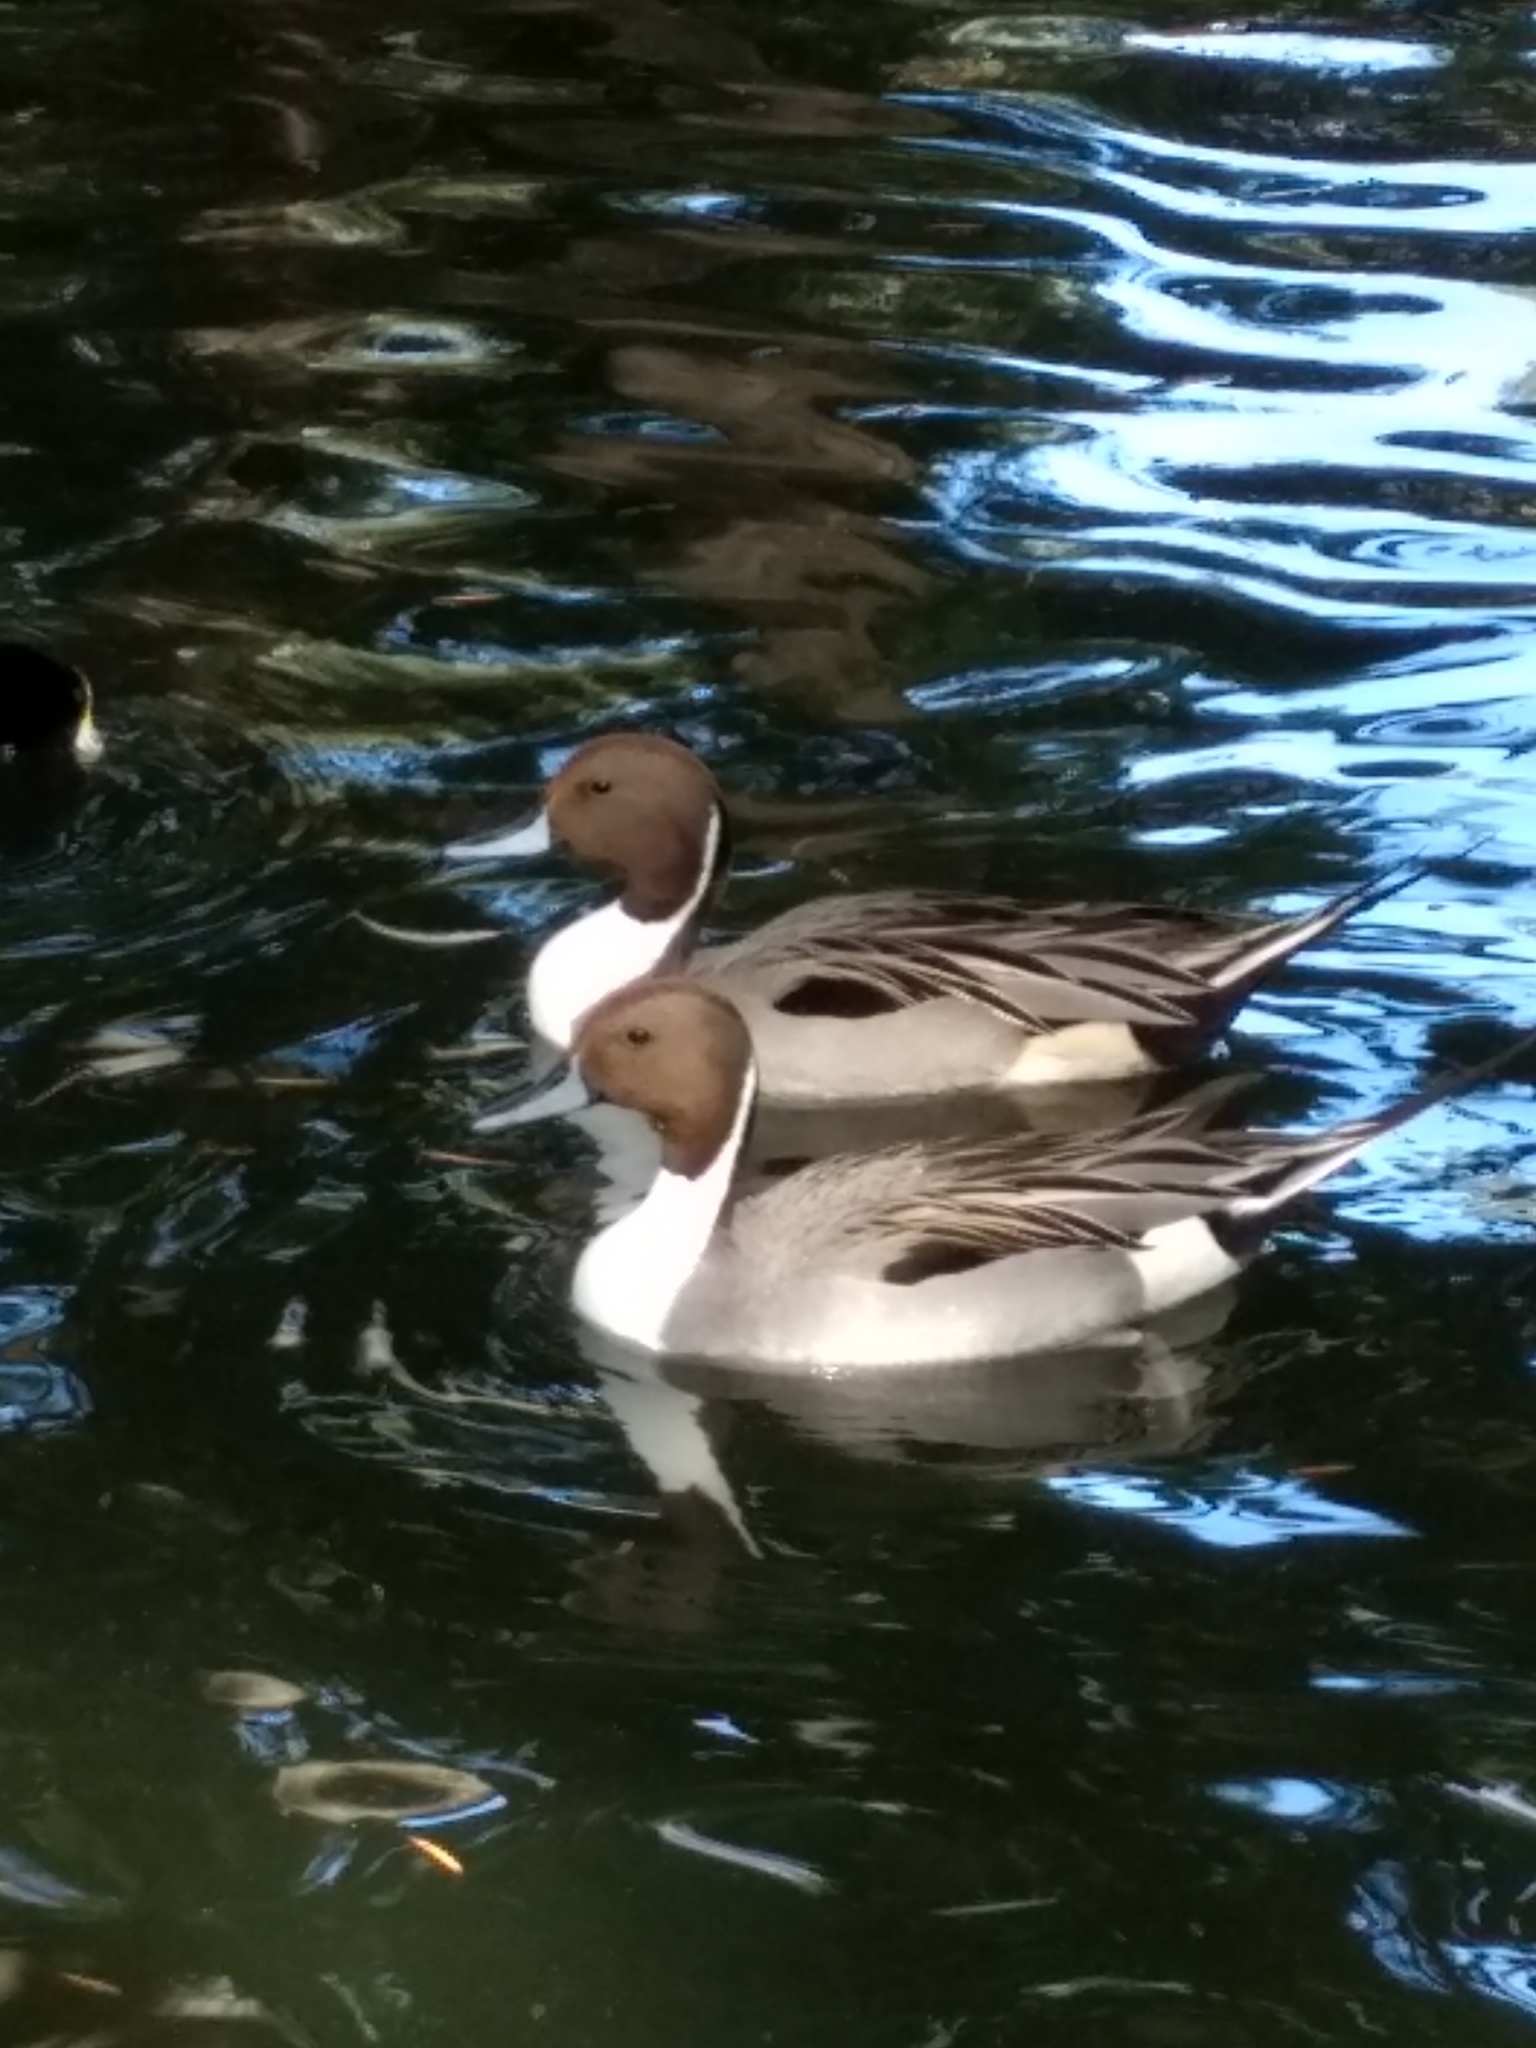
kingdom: Animalia
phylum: Chordata
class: Aves
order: Anseriformes
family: Anatidae
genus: Anas
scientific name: Anas acuta
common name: Northern pintail
